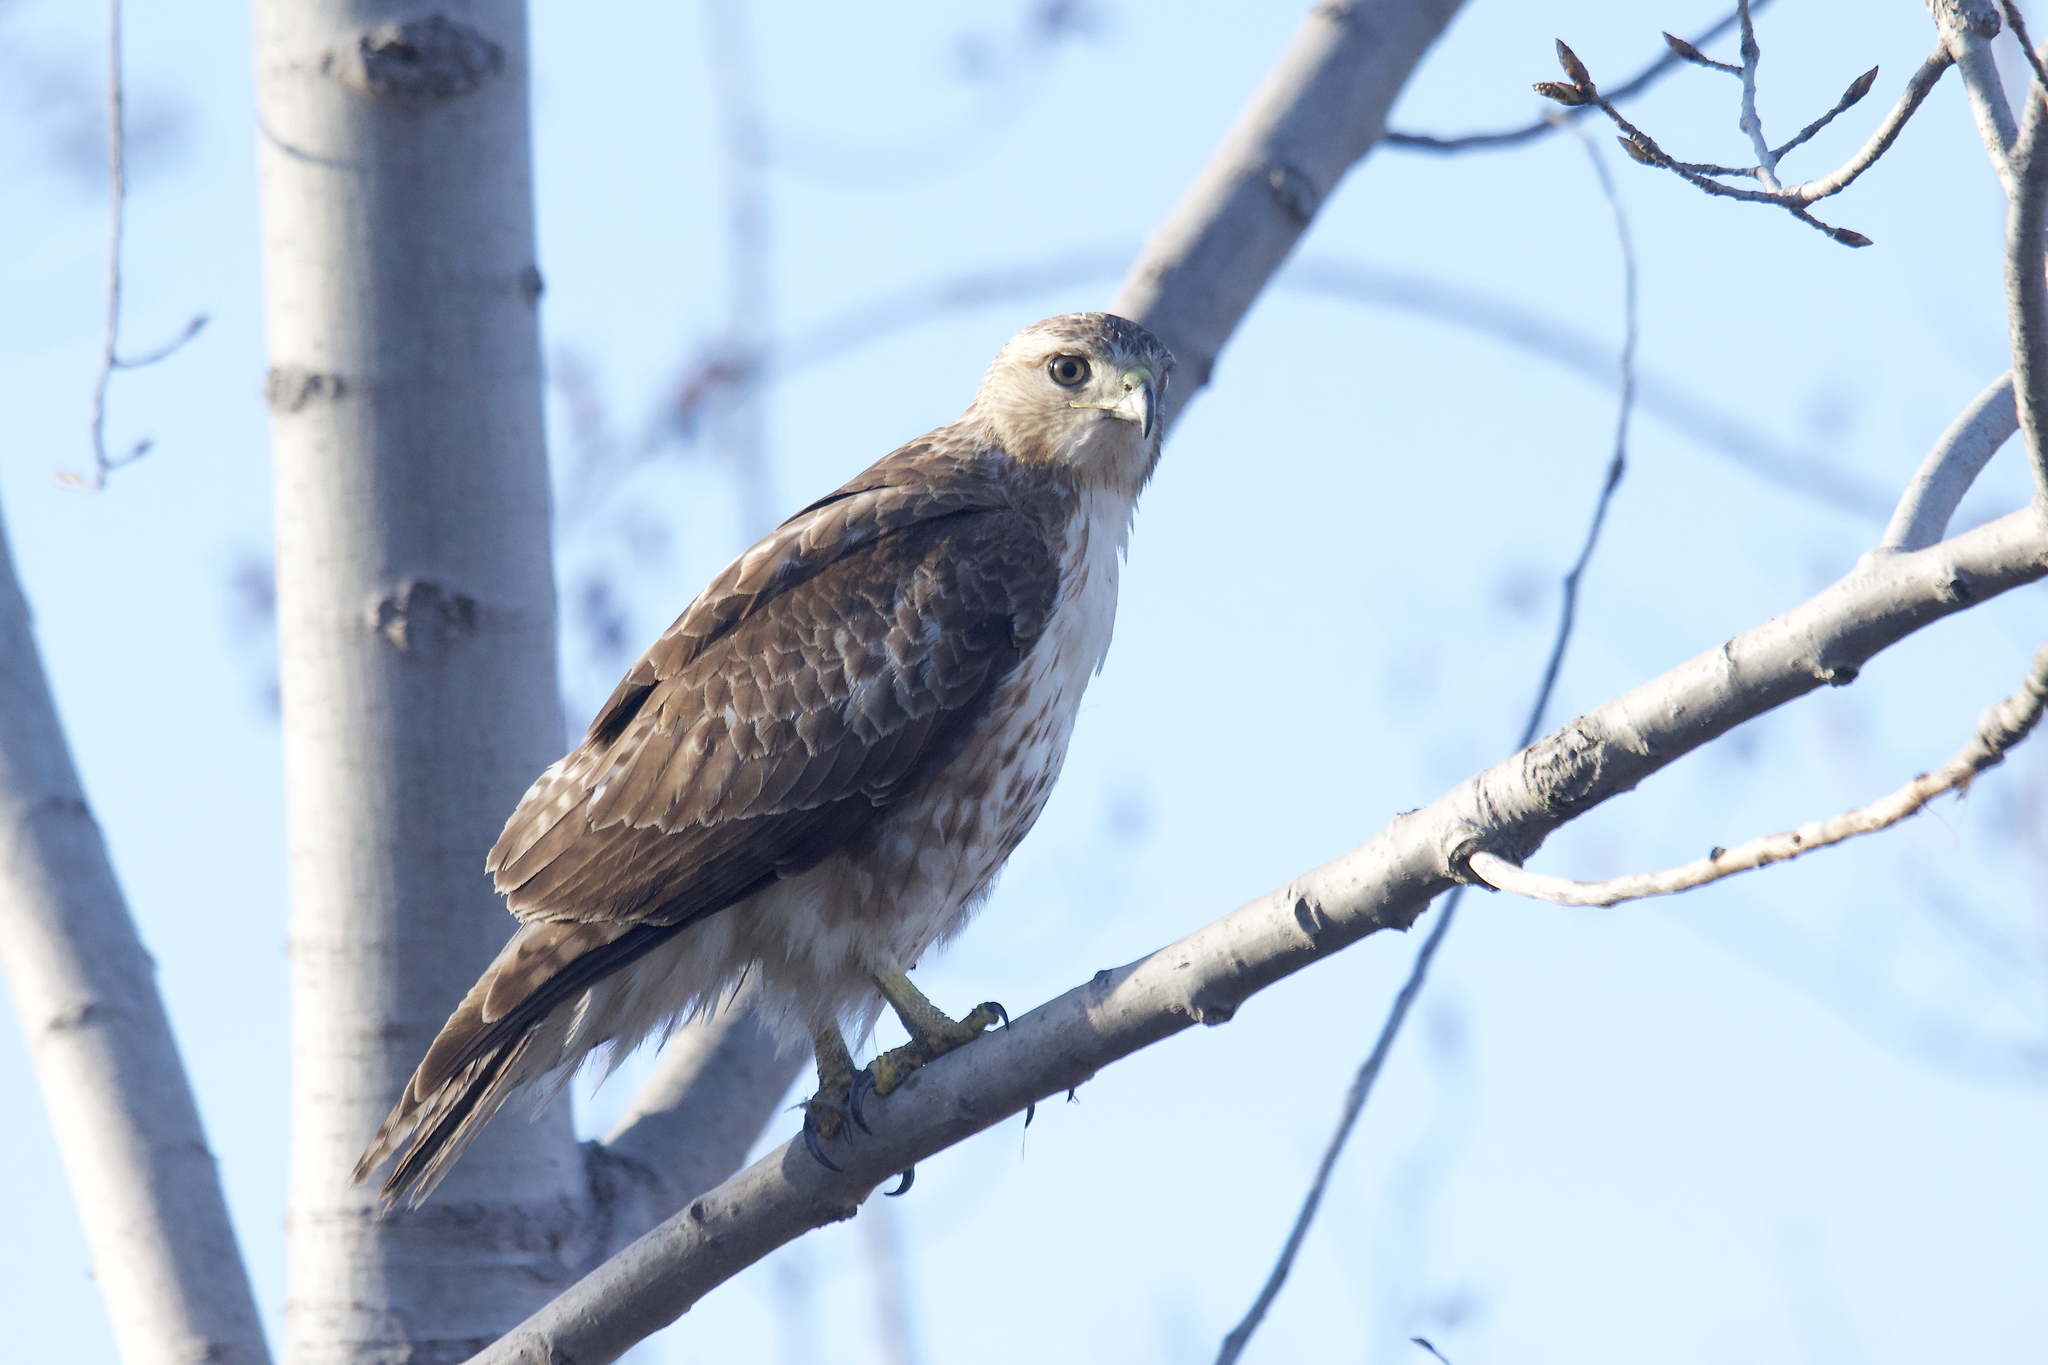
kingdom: Animalia
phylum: Chordata
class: Aves
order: Accipitriformes
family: Accipitridae
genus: Buteo
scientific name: Buteo jamaicensis
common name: Red-tailed hawk
